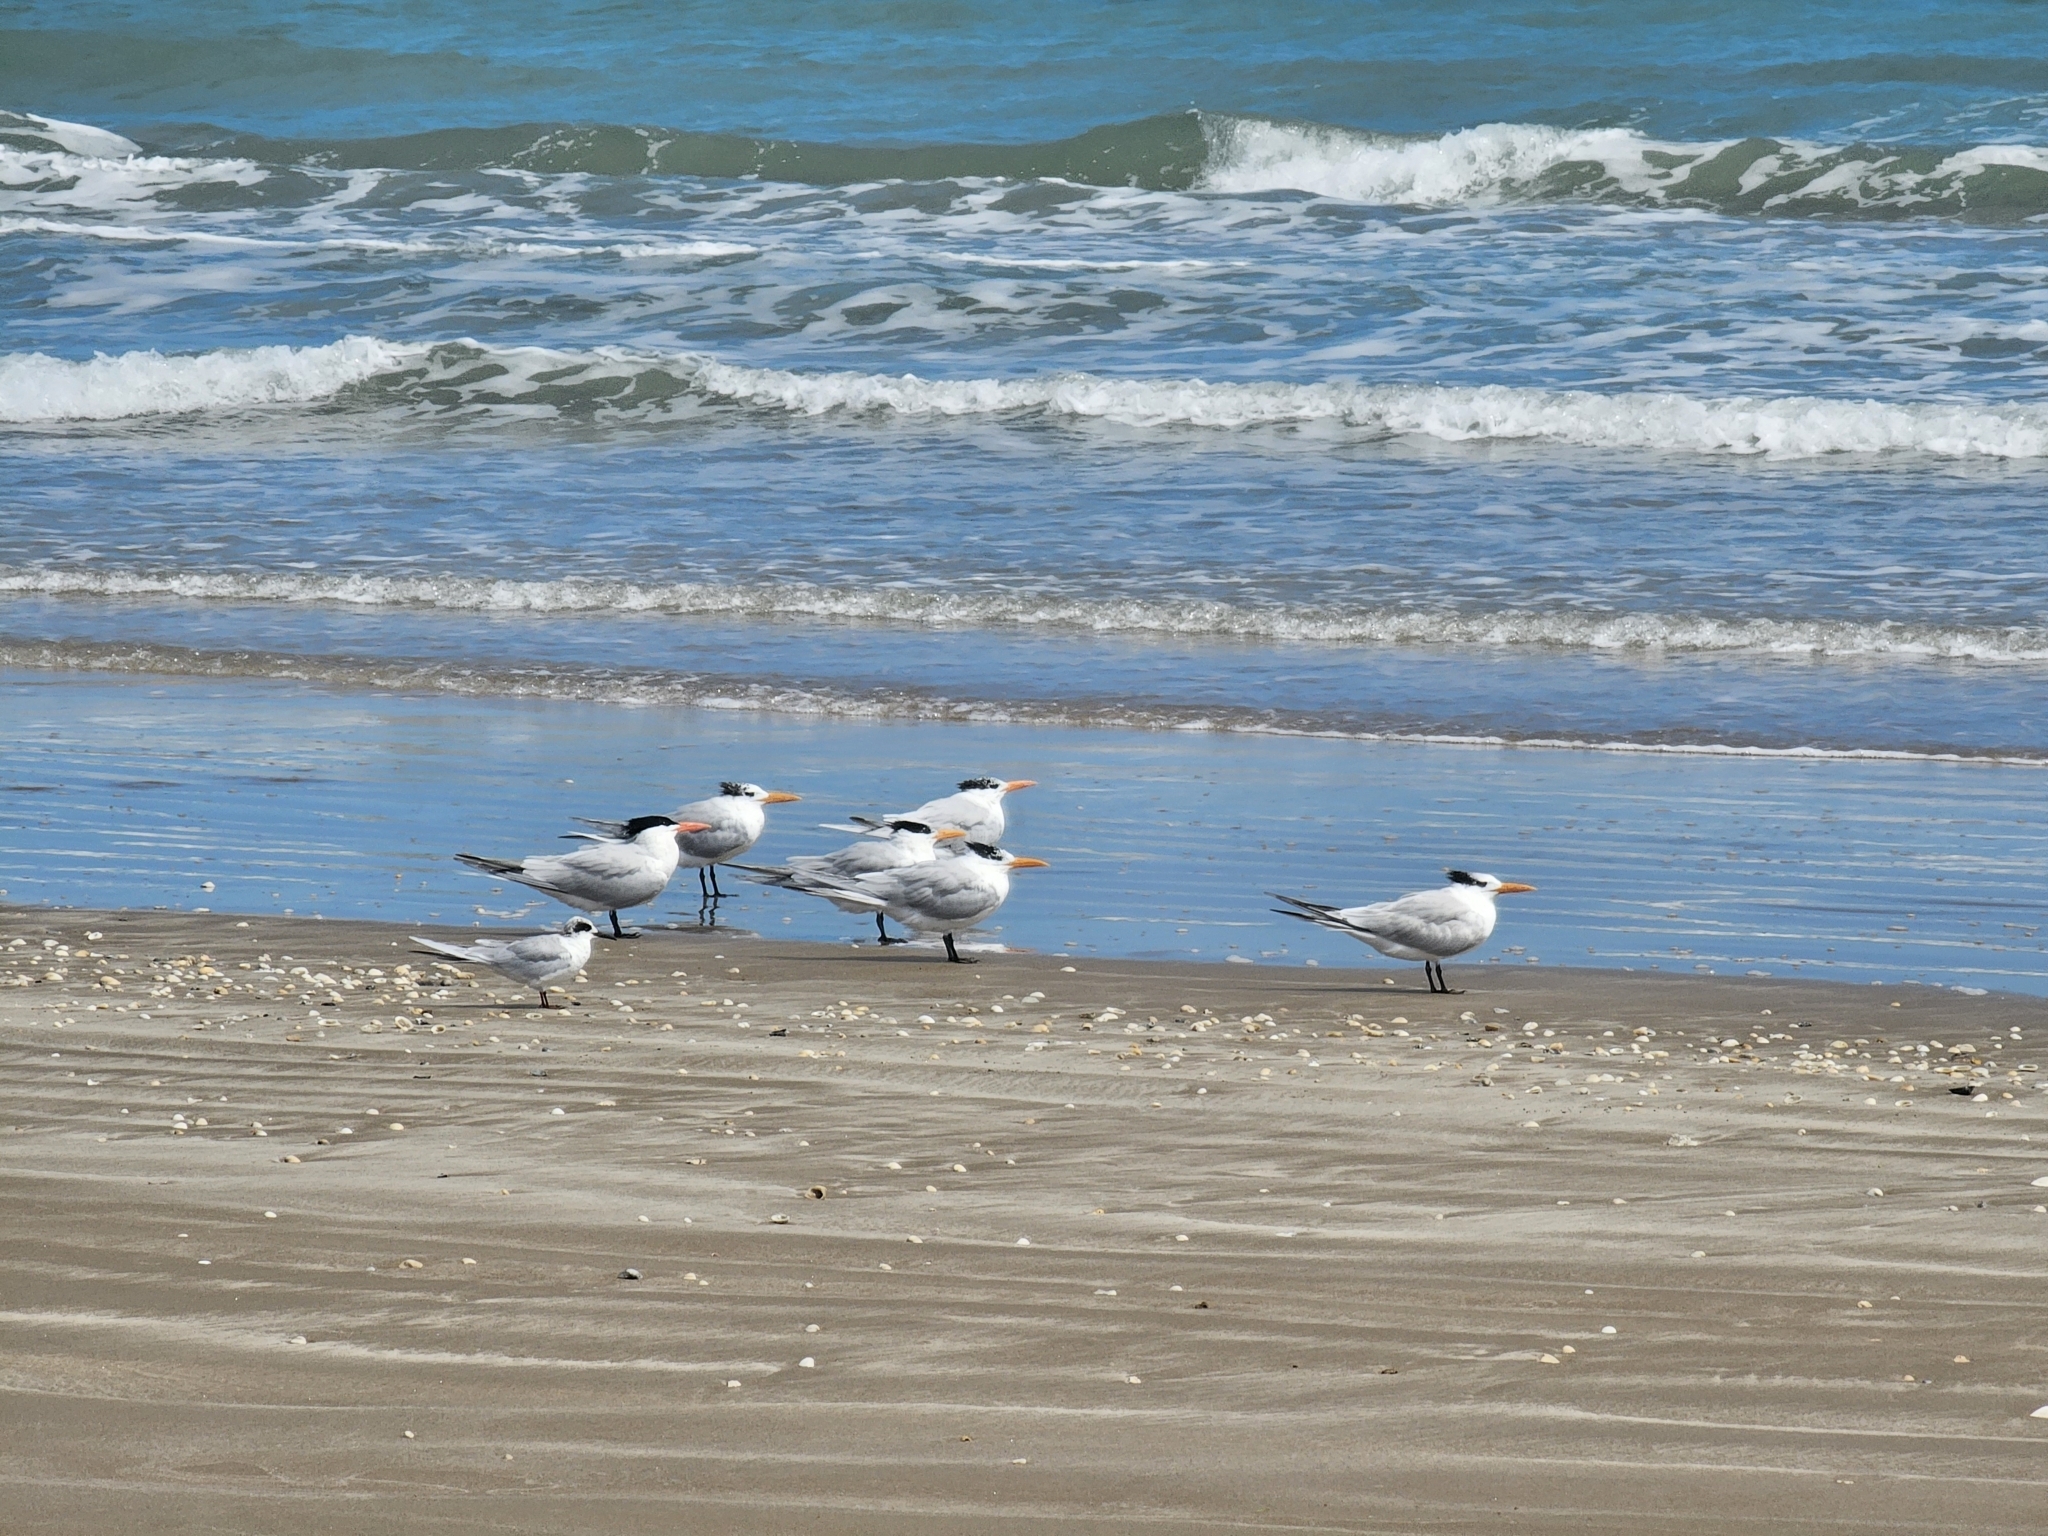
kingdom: Animalia
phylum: Chordata
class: Aves
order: Charadriiformes
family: Laridae
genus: Thalasseus
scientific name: Thalasseus maximus
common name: Royal tern
